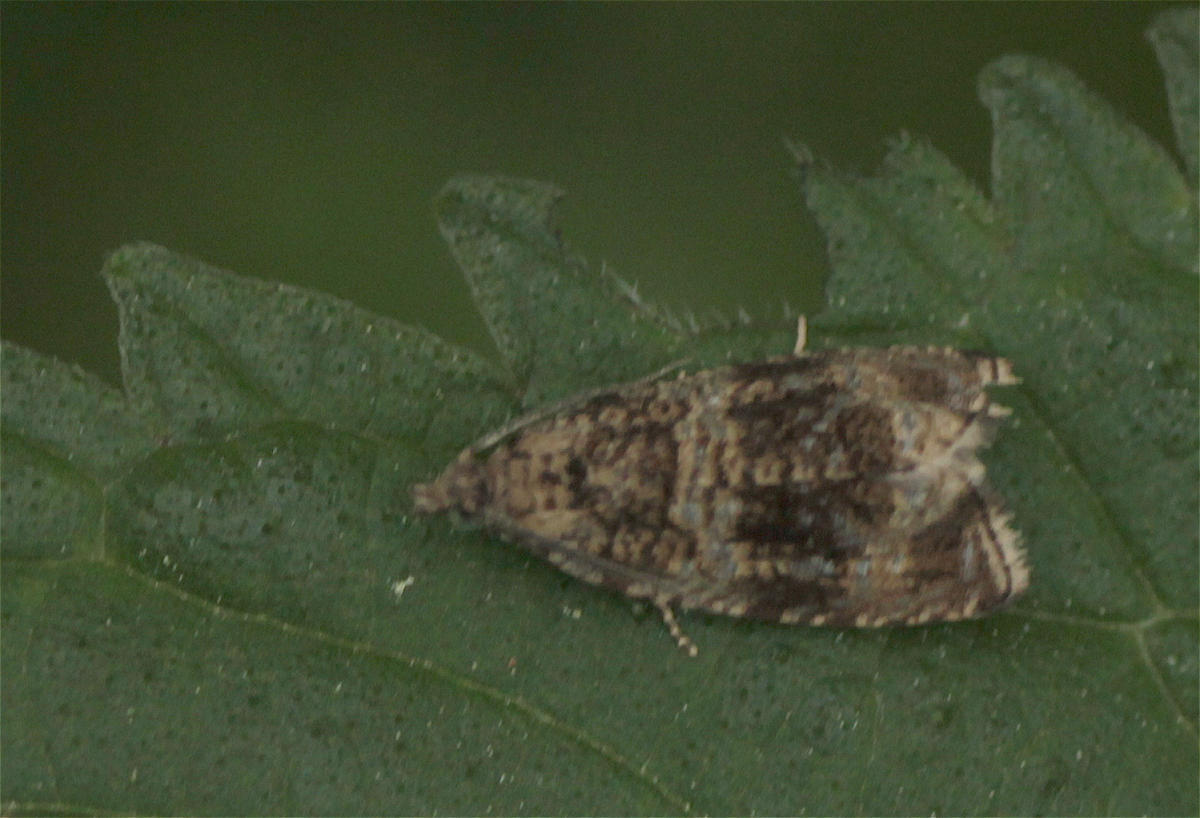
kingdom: Animalia
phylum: Arthropoda
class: Insecta
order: Lepidoptera
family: Tortricidae
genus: Syricoris
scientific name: Syricoris lacunana
